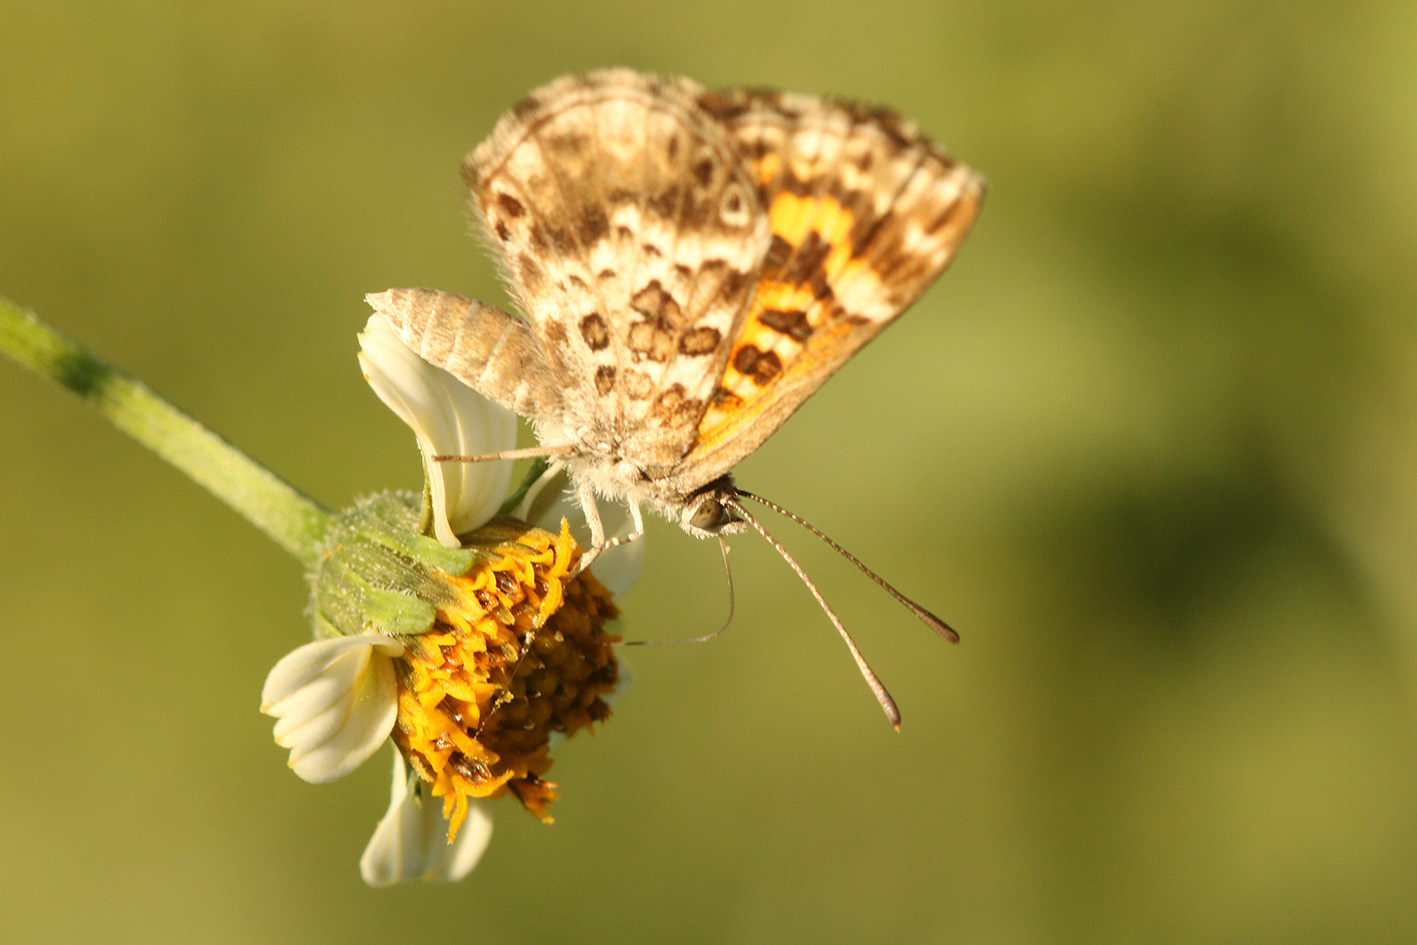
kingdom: Animalia
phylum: Arthropoda
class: Insecta
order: Lepidoptera
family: Lycaenidae
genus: Aricoris
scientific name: Aricoris signata
